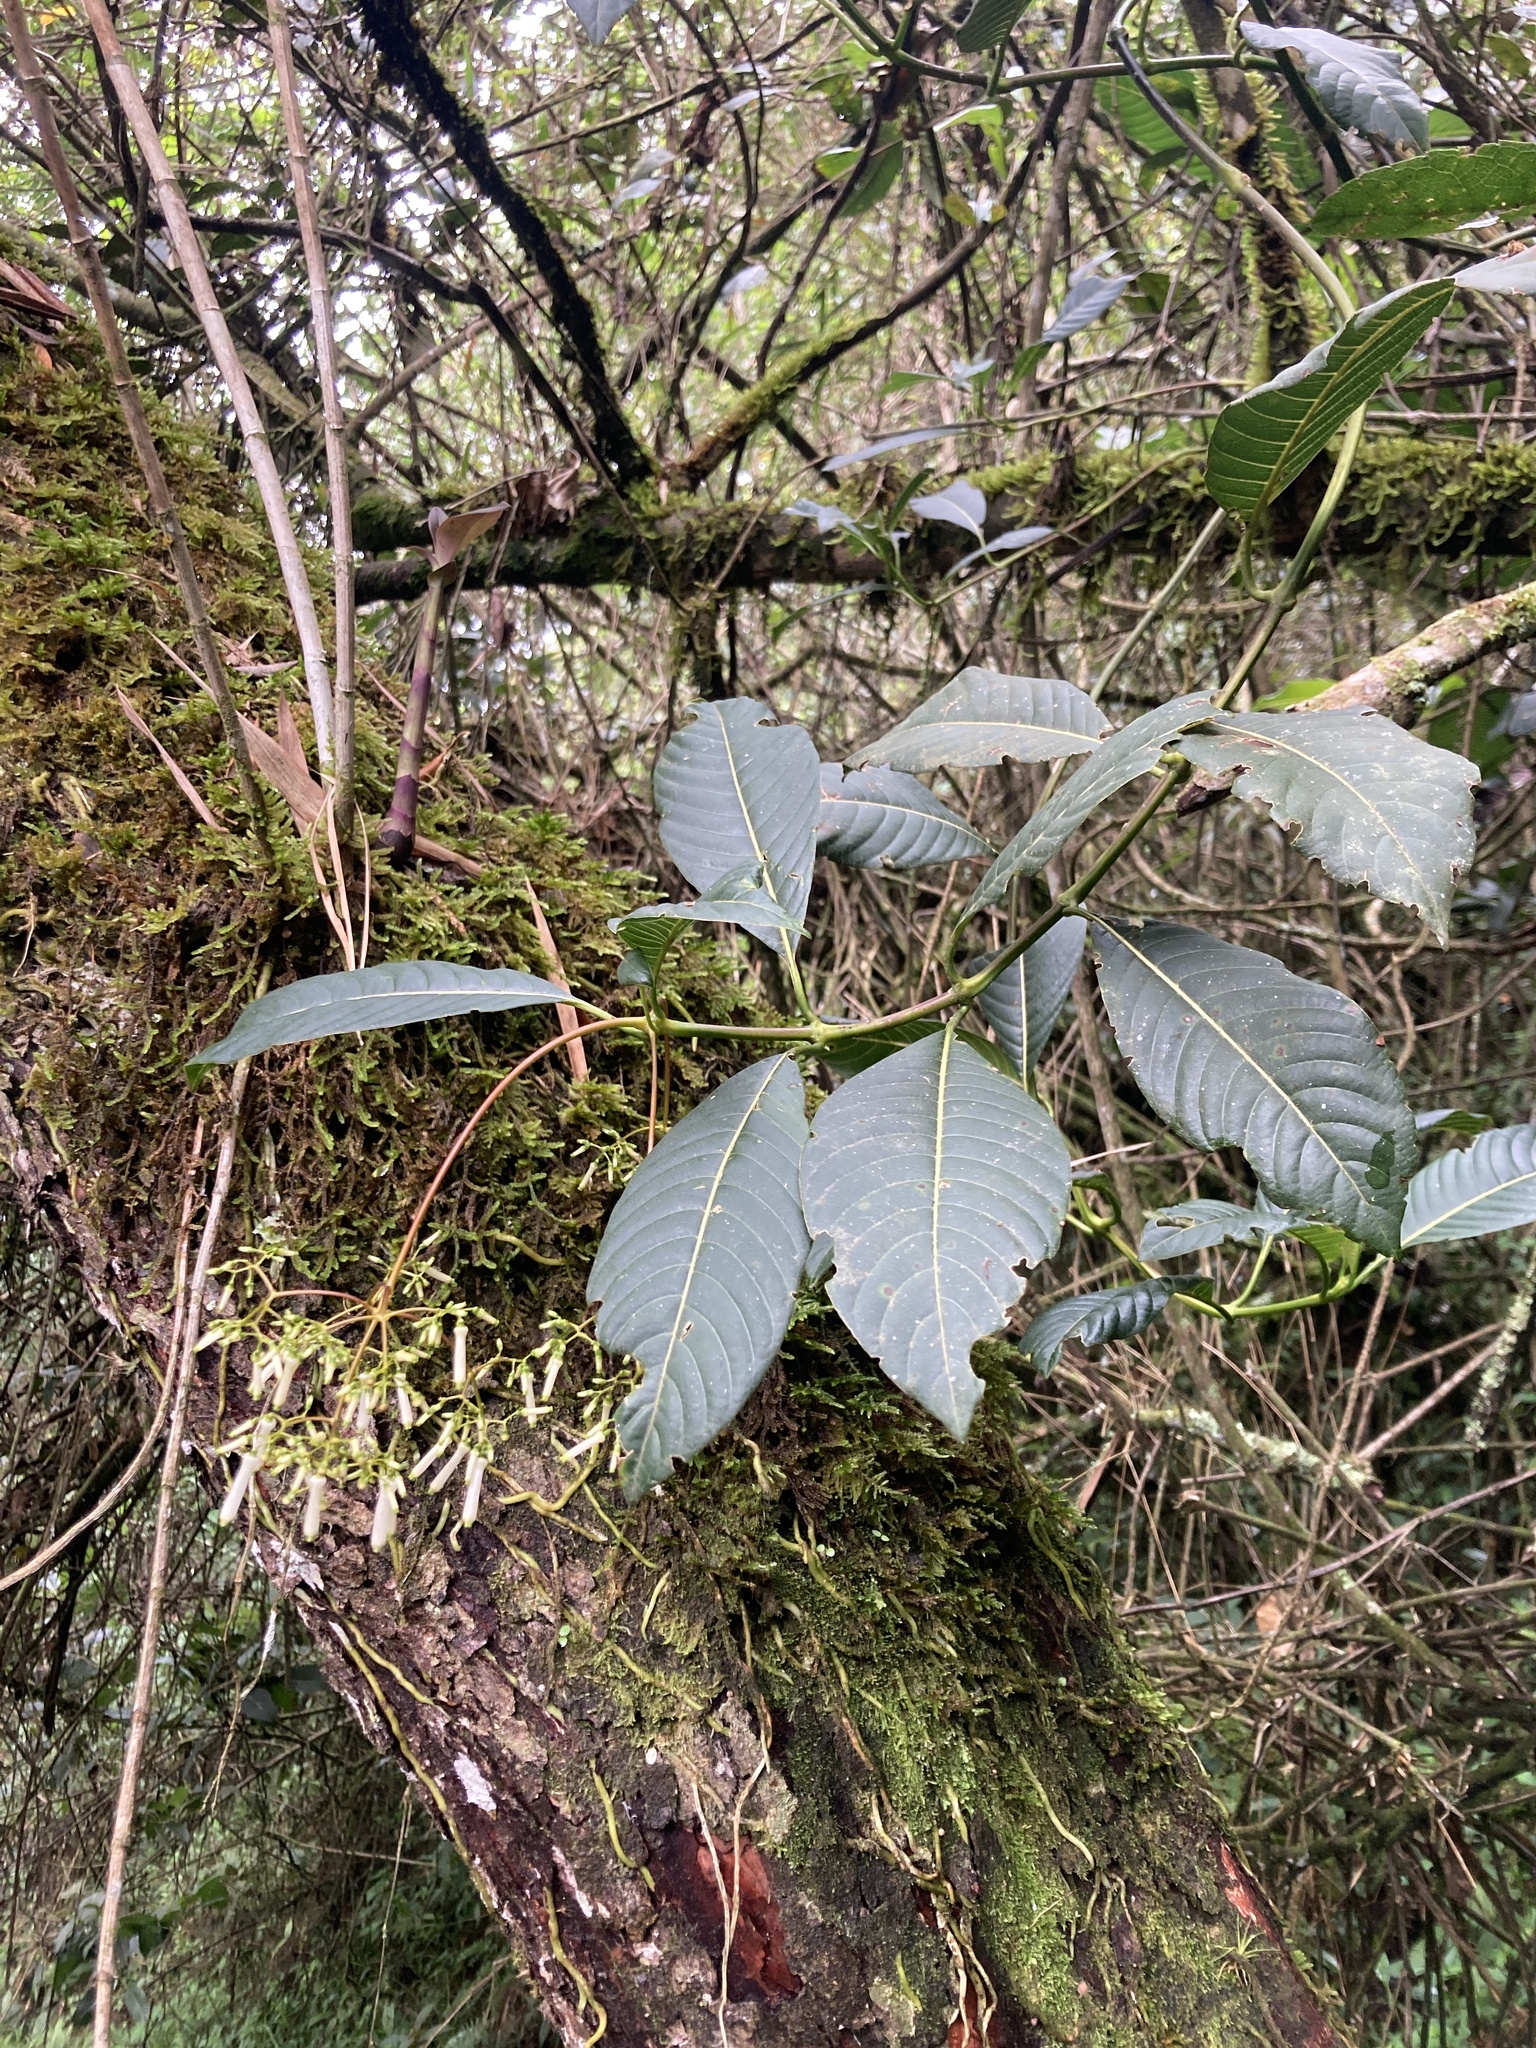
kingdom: Plantae
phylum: Tracheophyta
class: Magnoliopsida
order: Gentianales
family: Rubiaceae
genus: Palicourea
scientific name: Palicourea lineariflora
